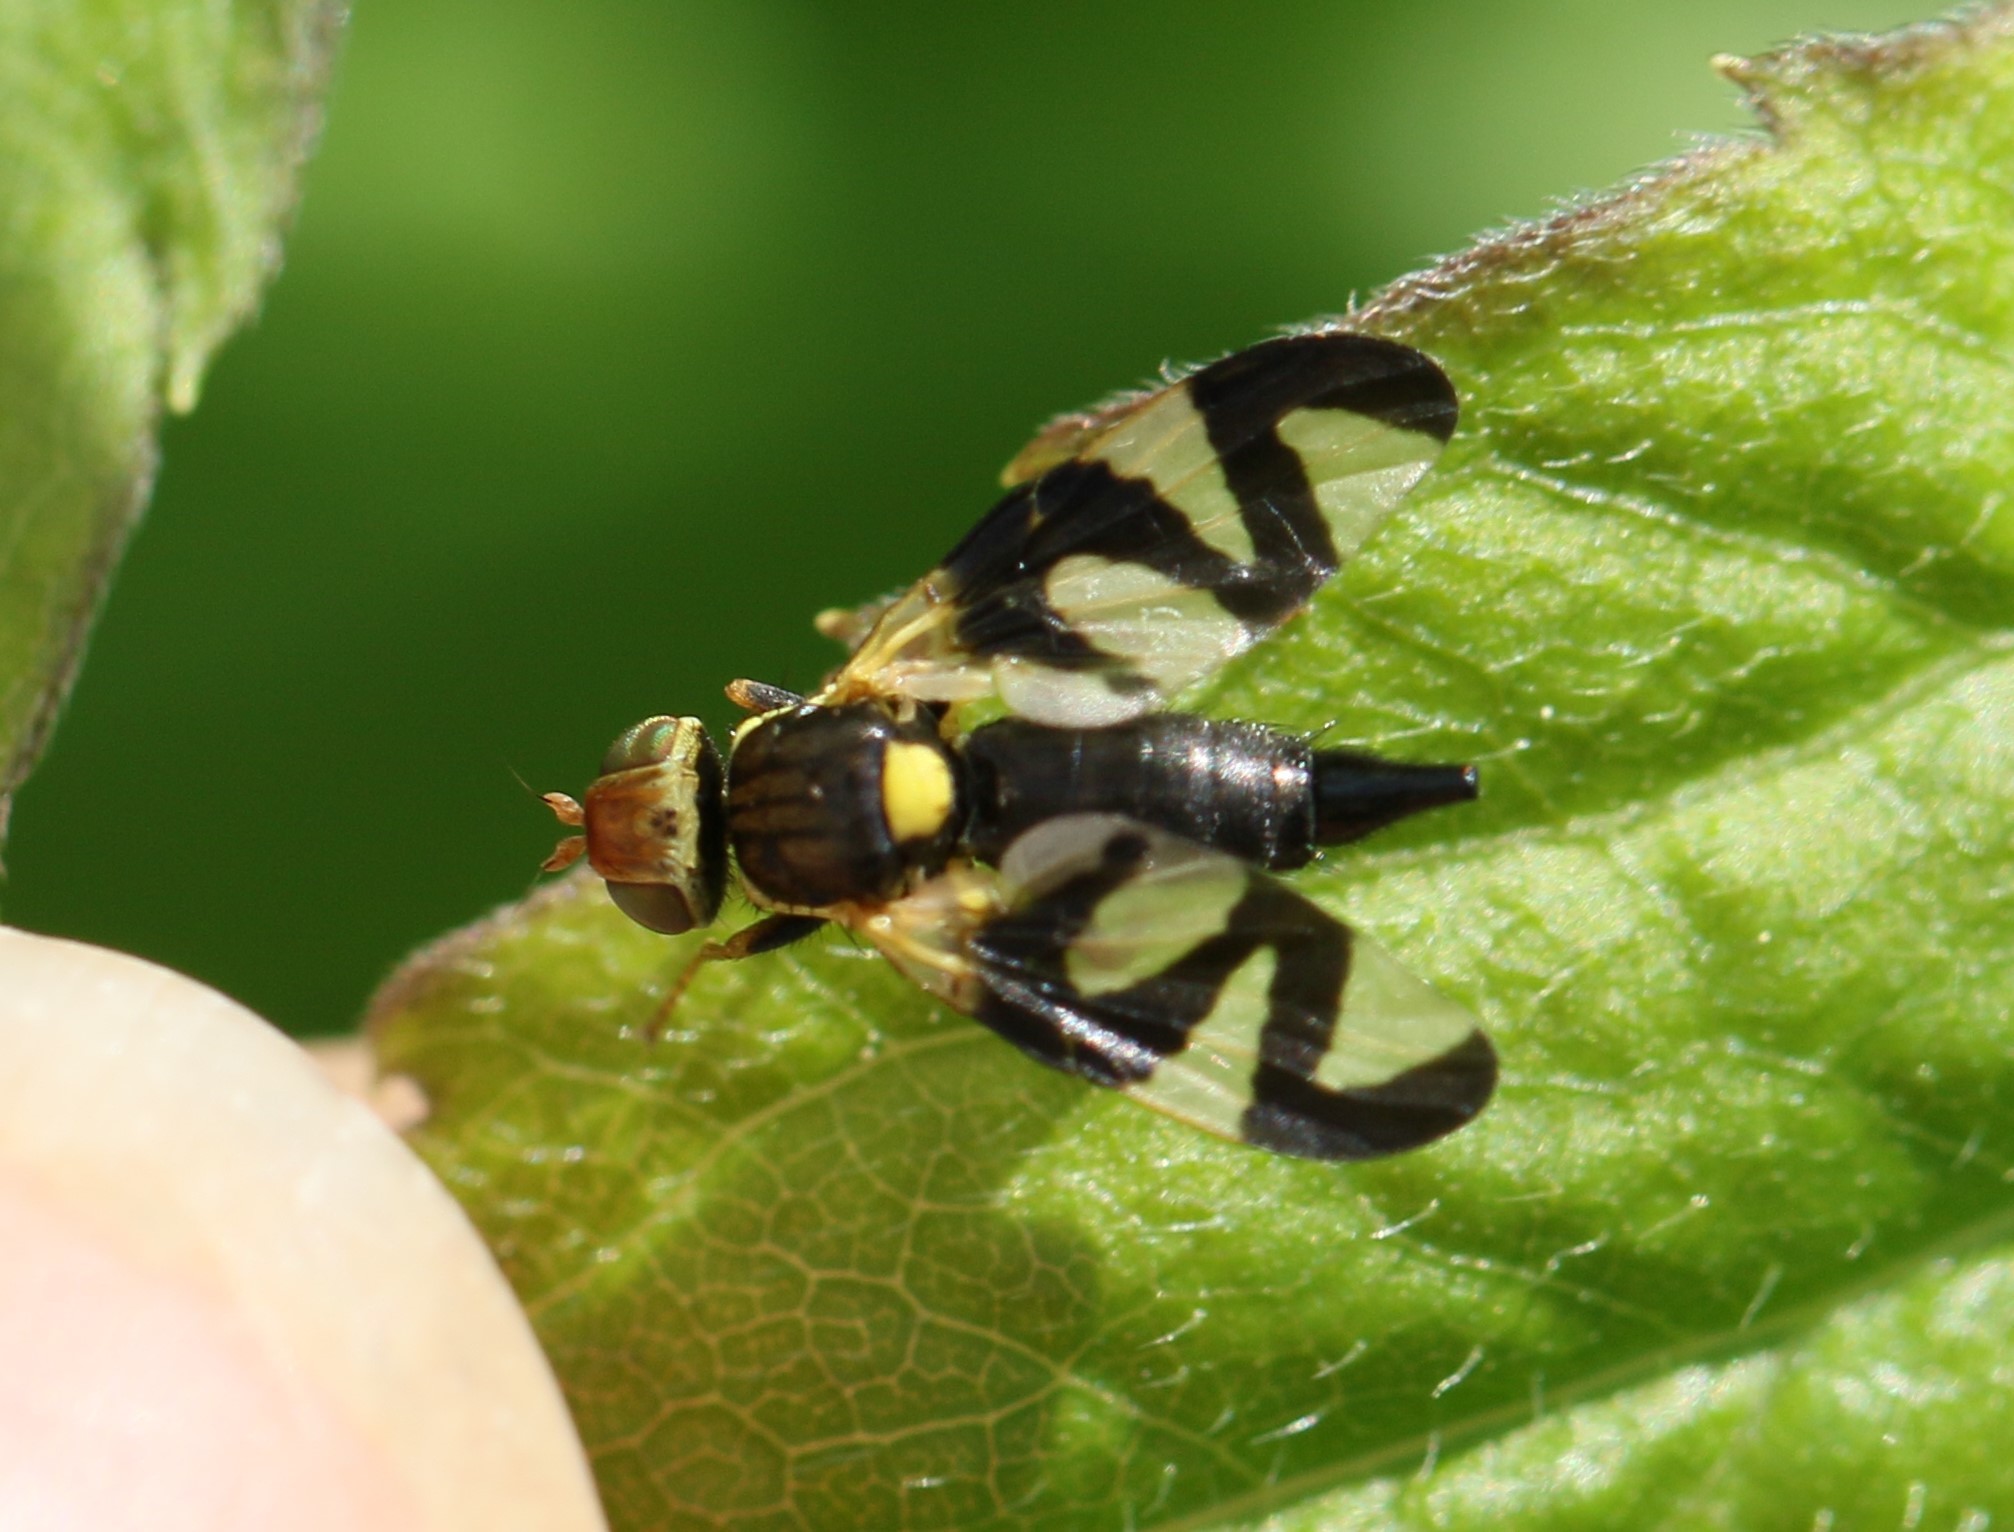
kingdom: Animalia
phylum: Arthropoda
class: Insecta
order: Diptera
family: Tephritidae
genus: Urophora
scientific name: Urophora cardui
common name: Fruit fly
